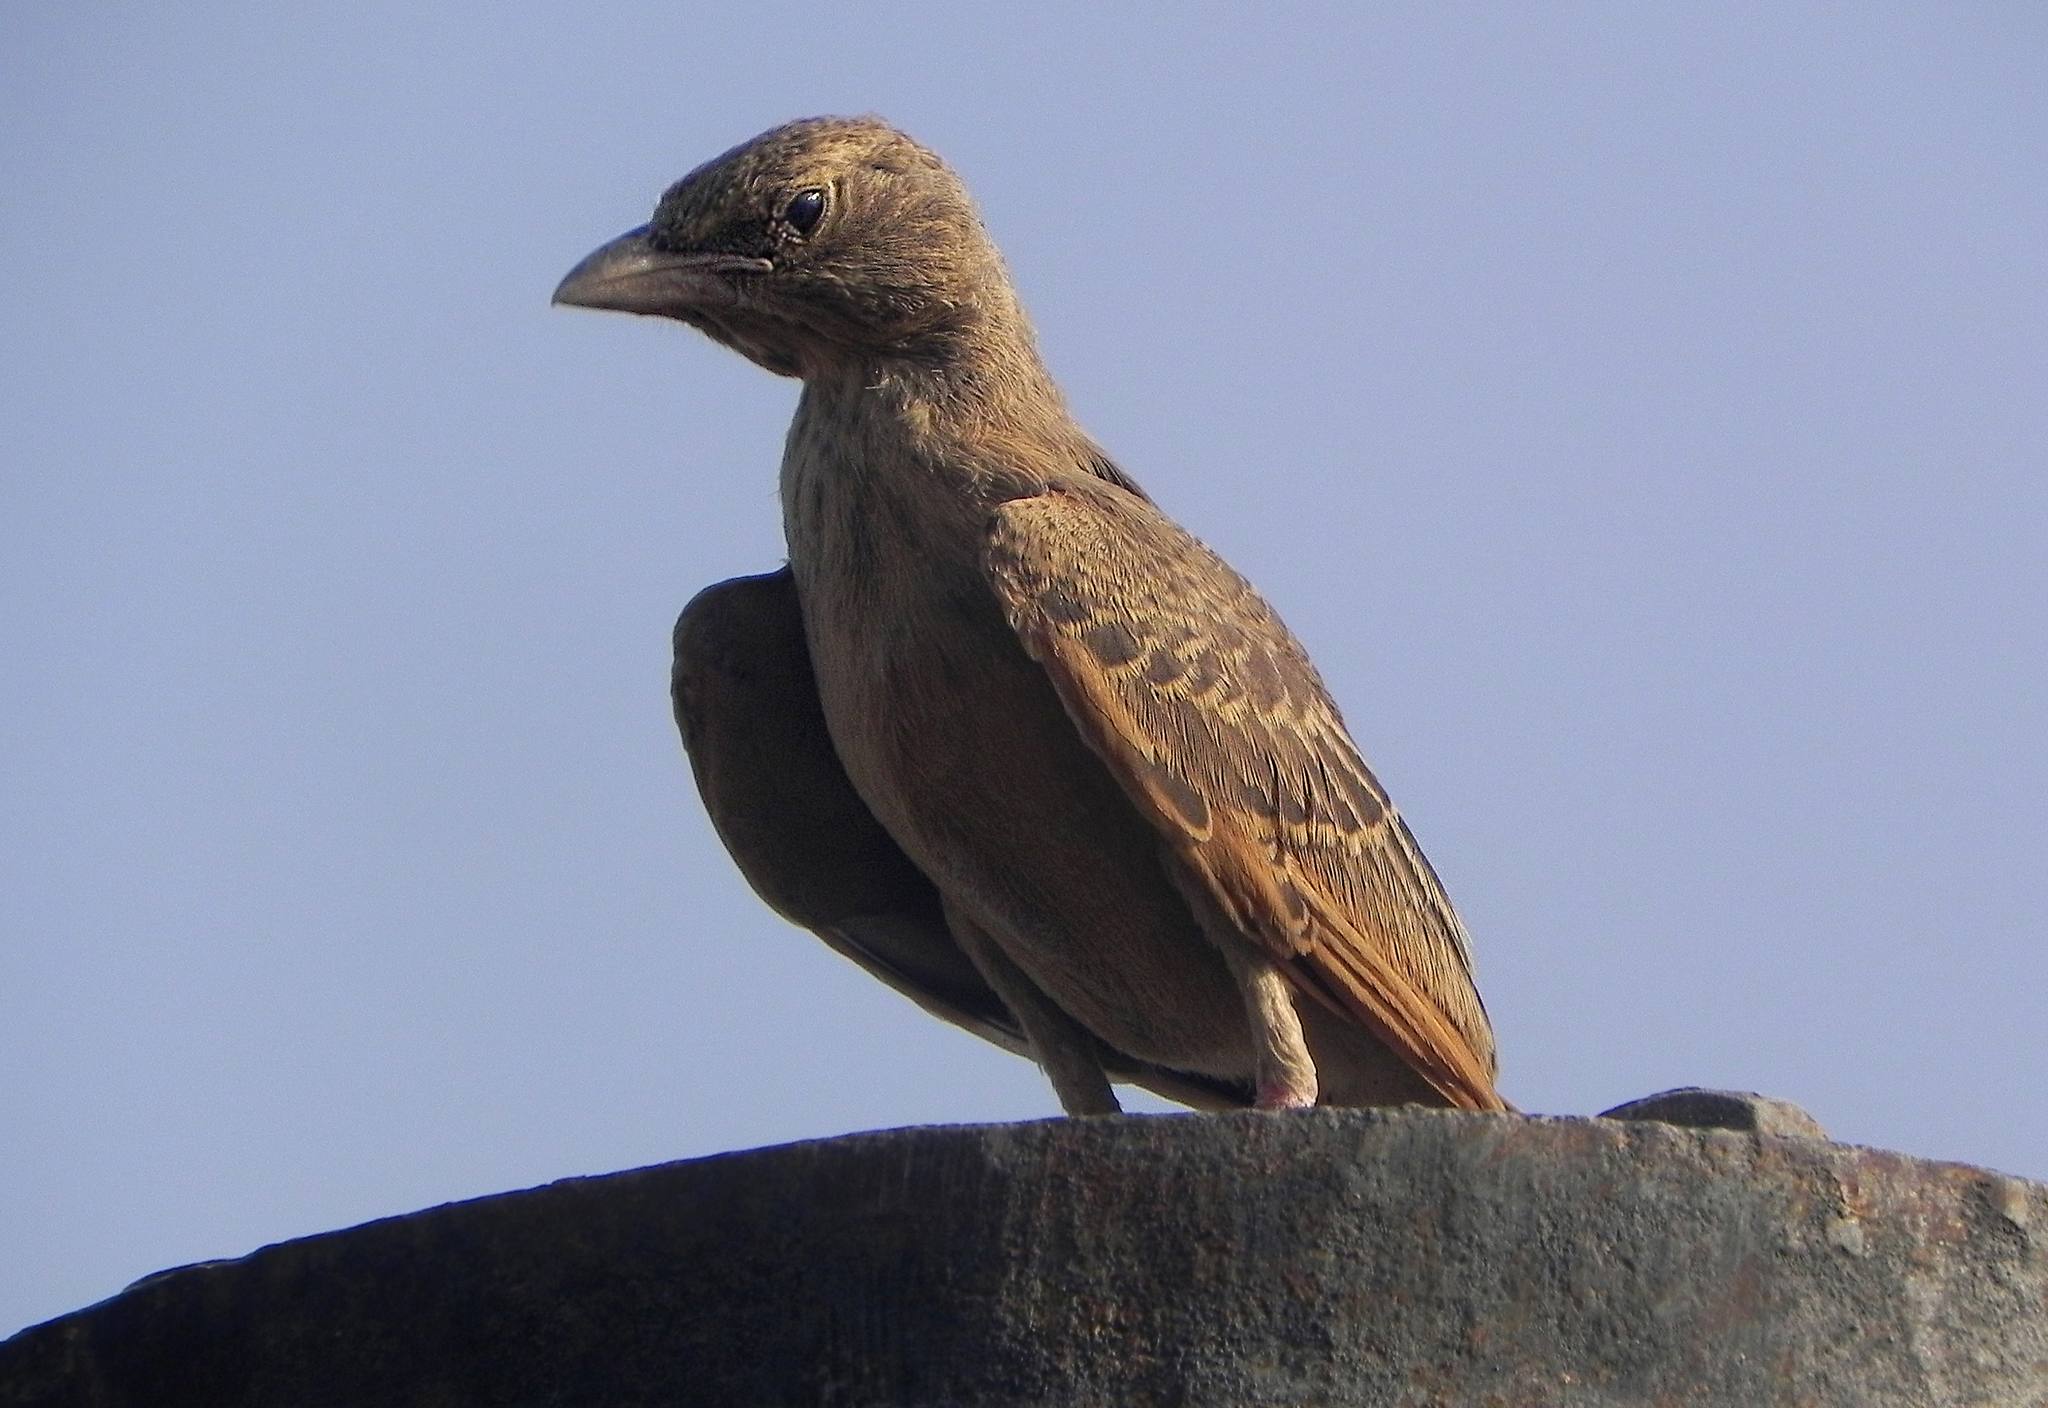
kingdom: Animalia
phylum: Chordata
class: Aves
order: Passeriformes
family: Alaudidae
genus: Ammomanes
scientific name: Ammomanes phoenicura
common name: Rufous-tailed lark
